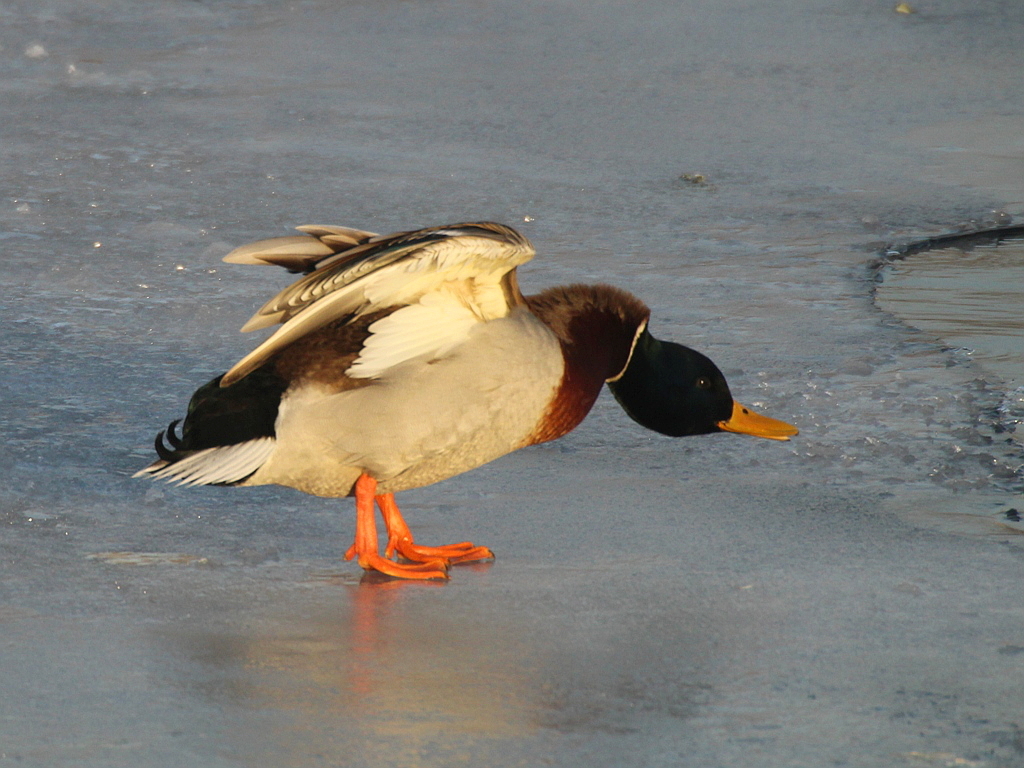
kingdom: Animalia
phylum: Chordata
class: Aves
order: Anseriformes
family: Anatidae
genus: Anas
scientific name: Anas platyrhynchos
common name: Mallard
